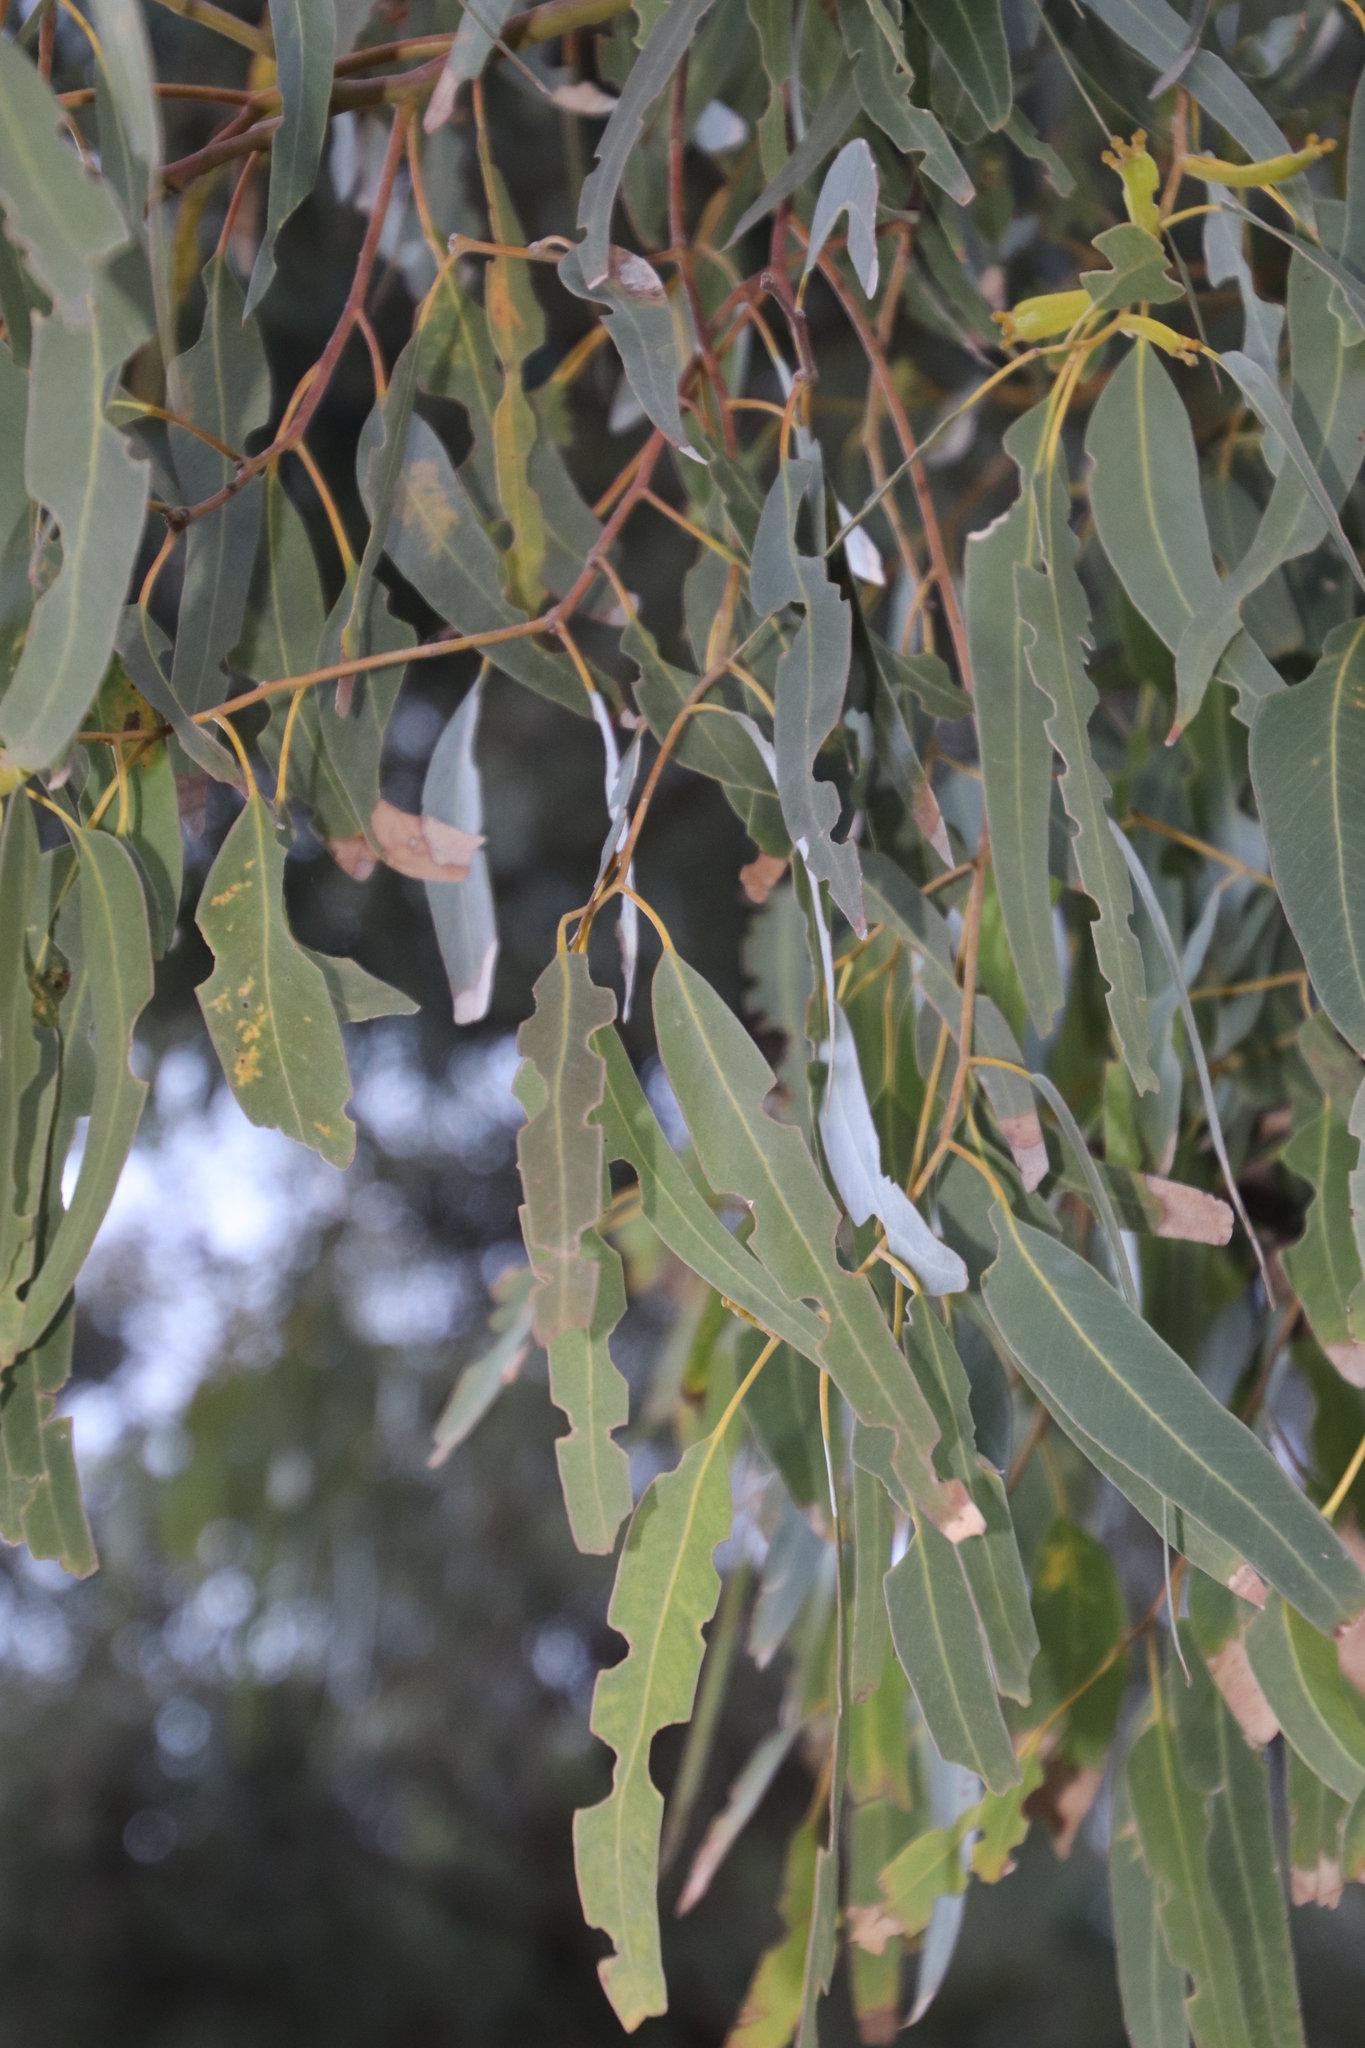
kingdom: Animalia
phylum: Arthropoda
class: Insecta
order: Coleoptera
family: Curculionidae
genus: Gonipterus
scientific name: Gonipterus
